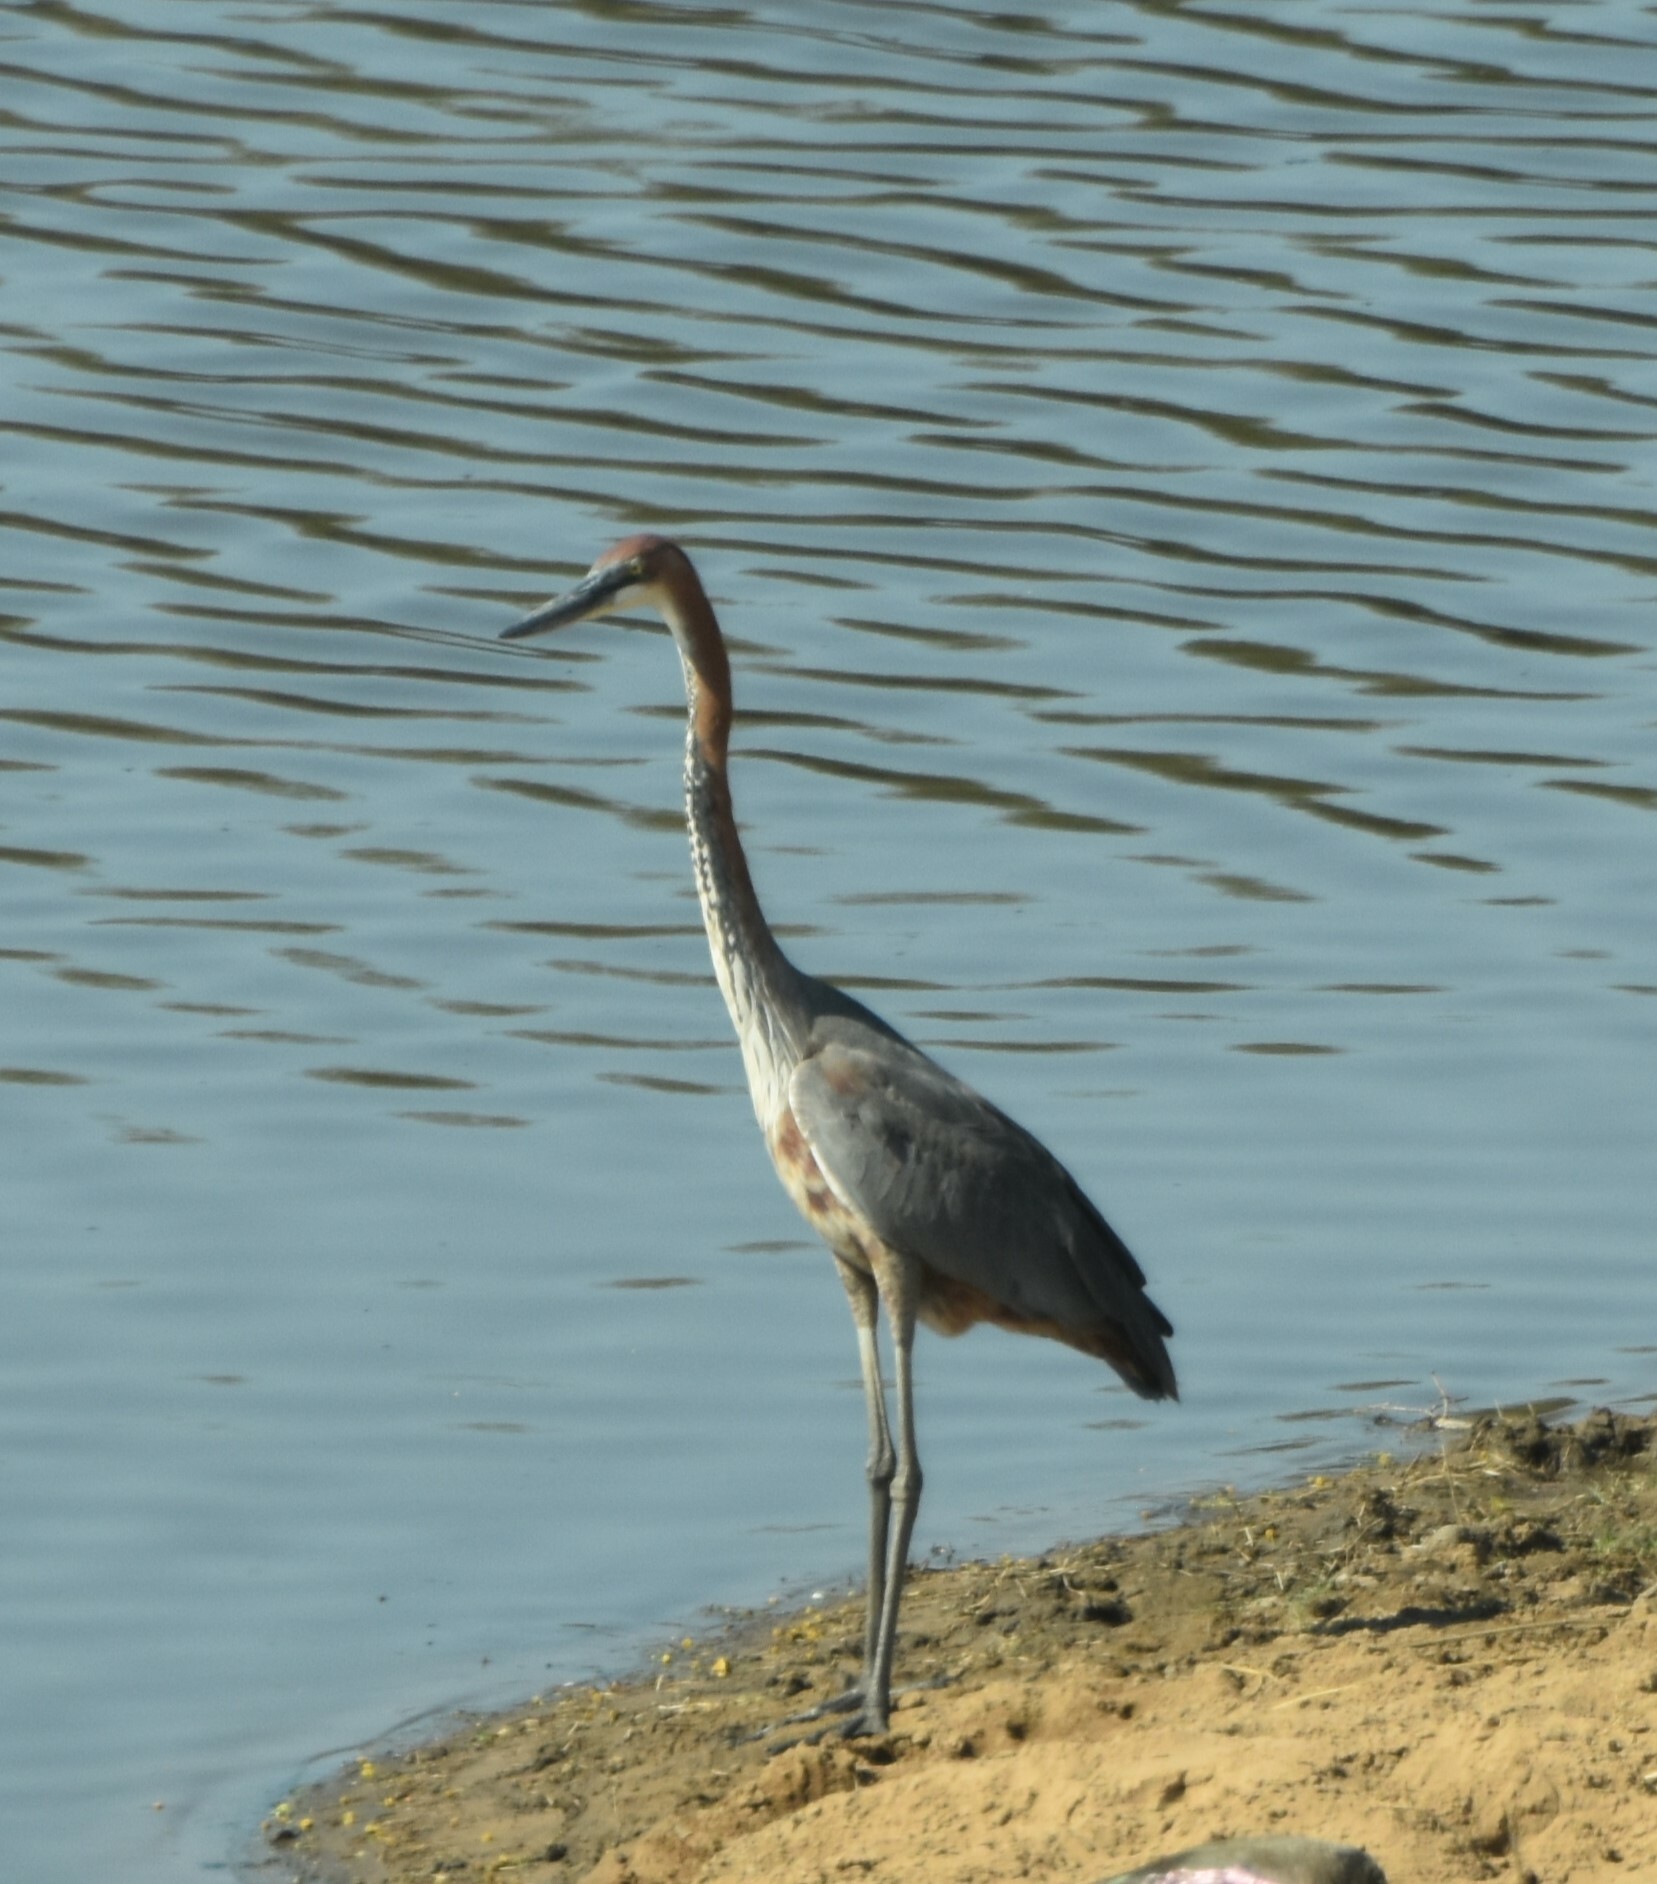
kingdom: Animalia
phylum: Chordata
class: Aves
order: Pelecaniformes
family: Ardeidae
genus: Ardea
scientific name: Ardea goliath
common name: Goliath heron
